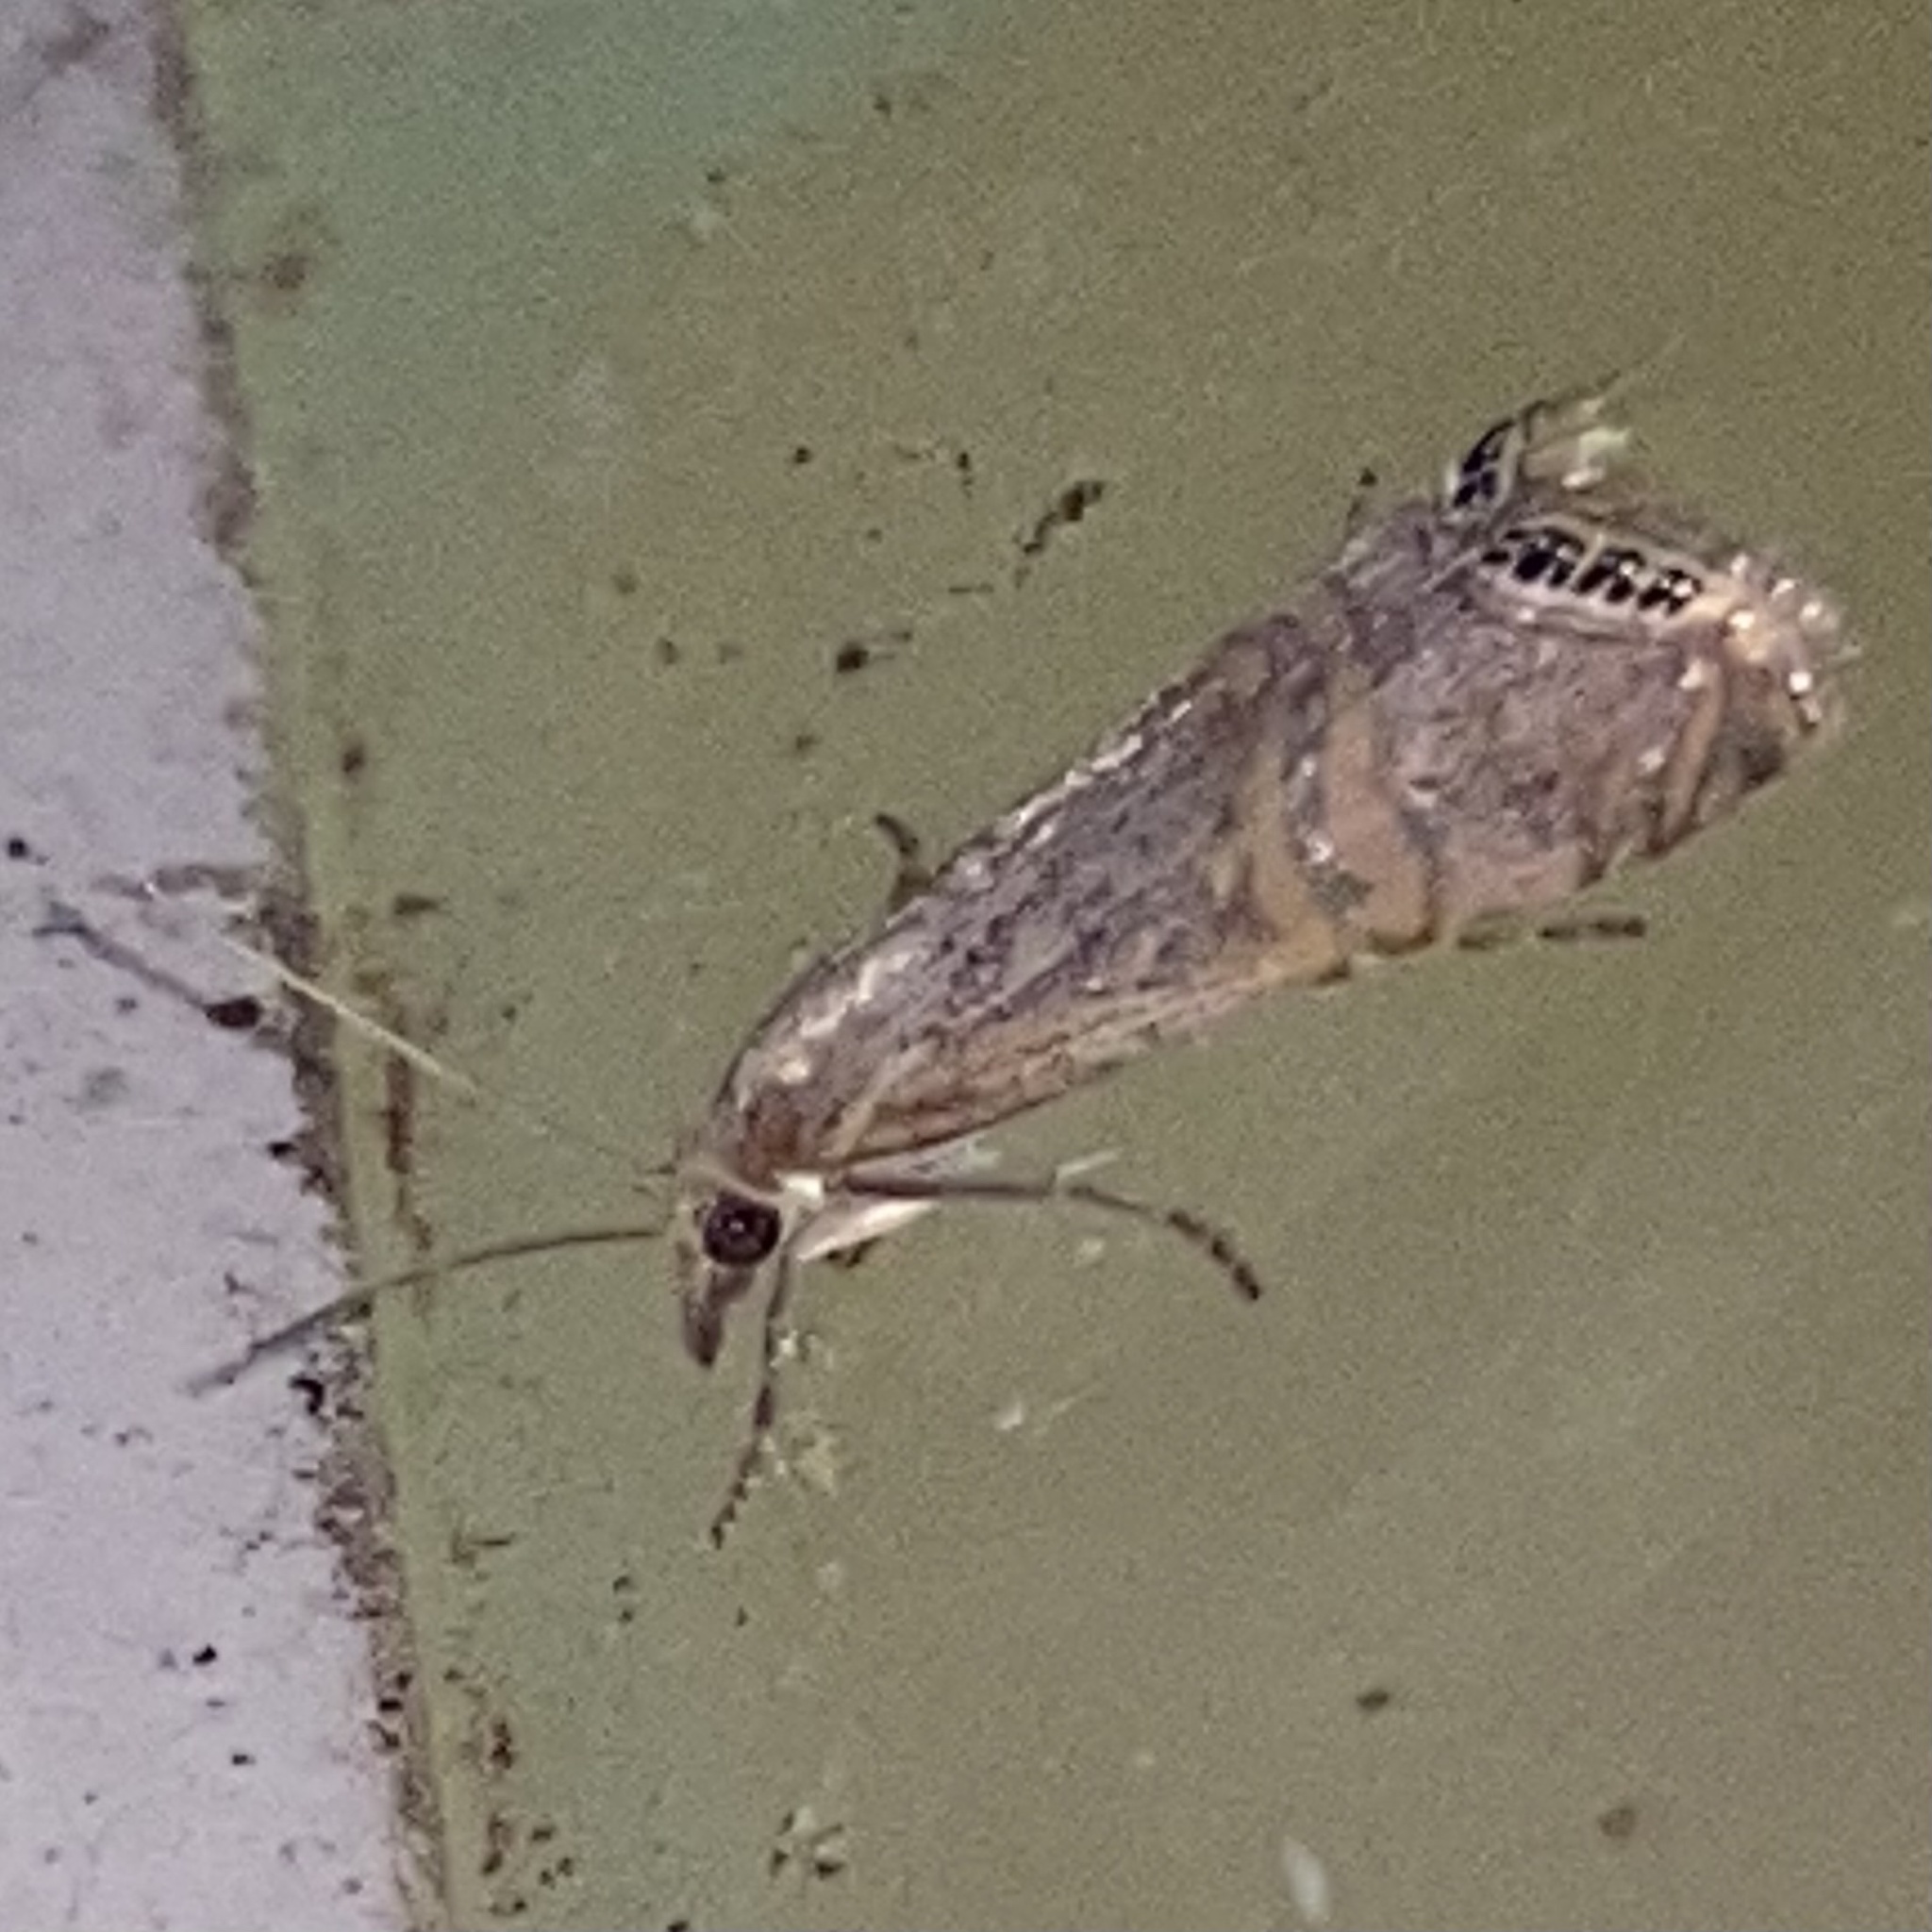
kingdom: Animalia
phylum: Arthropoda
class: Insecta
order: Lepidoptera
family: Crambidae
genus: Euchromius
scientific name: Euchromius ocellea
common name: Necklace veneer moth
